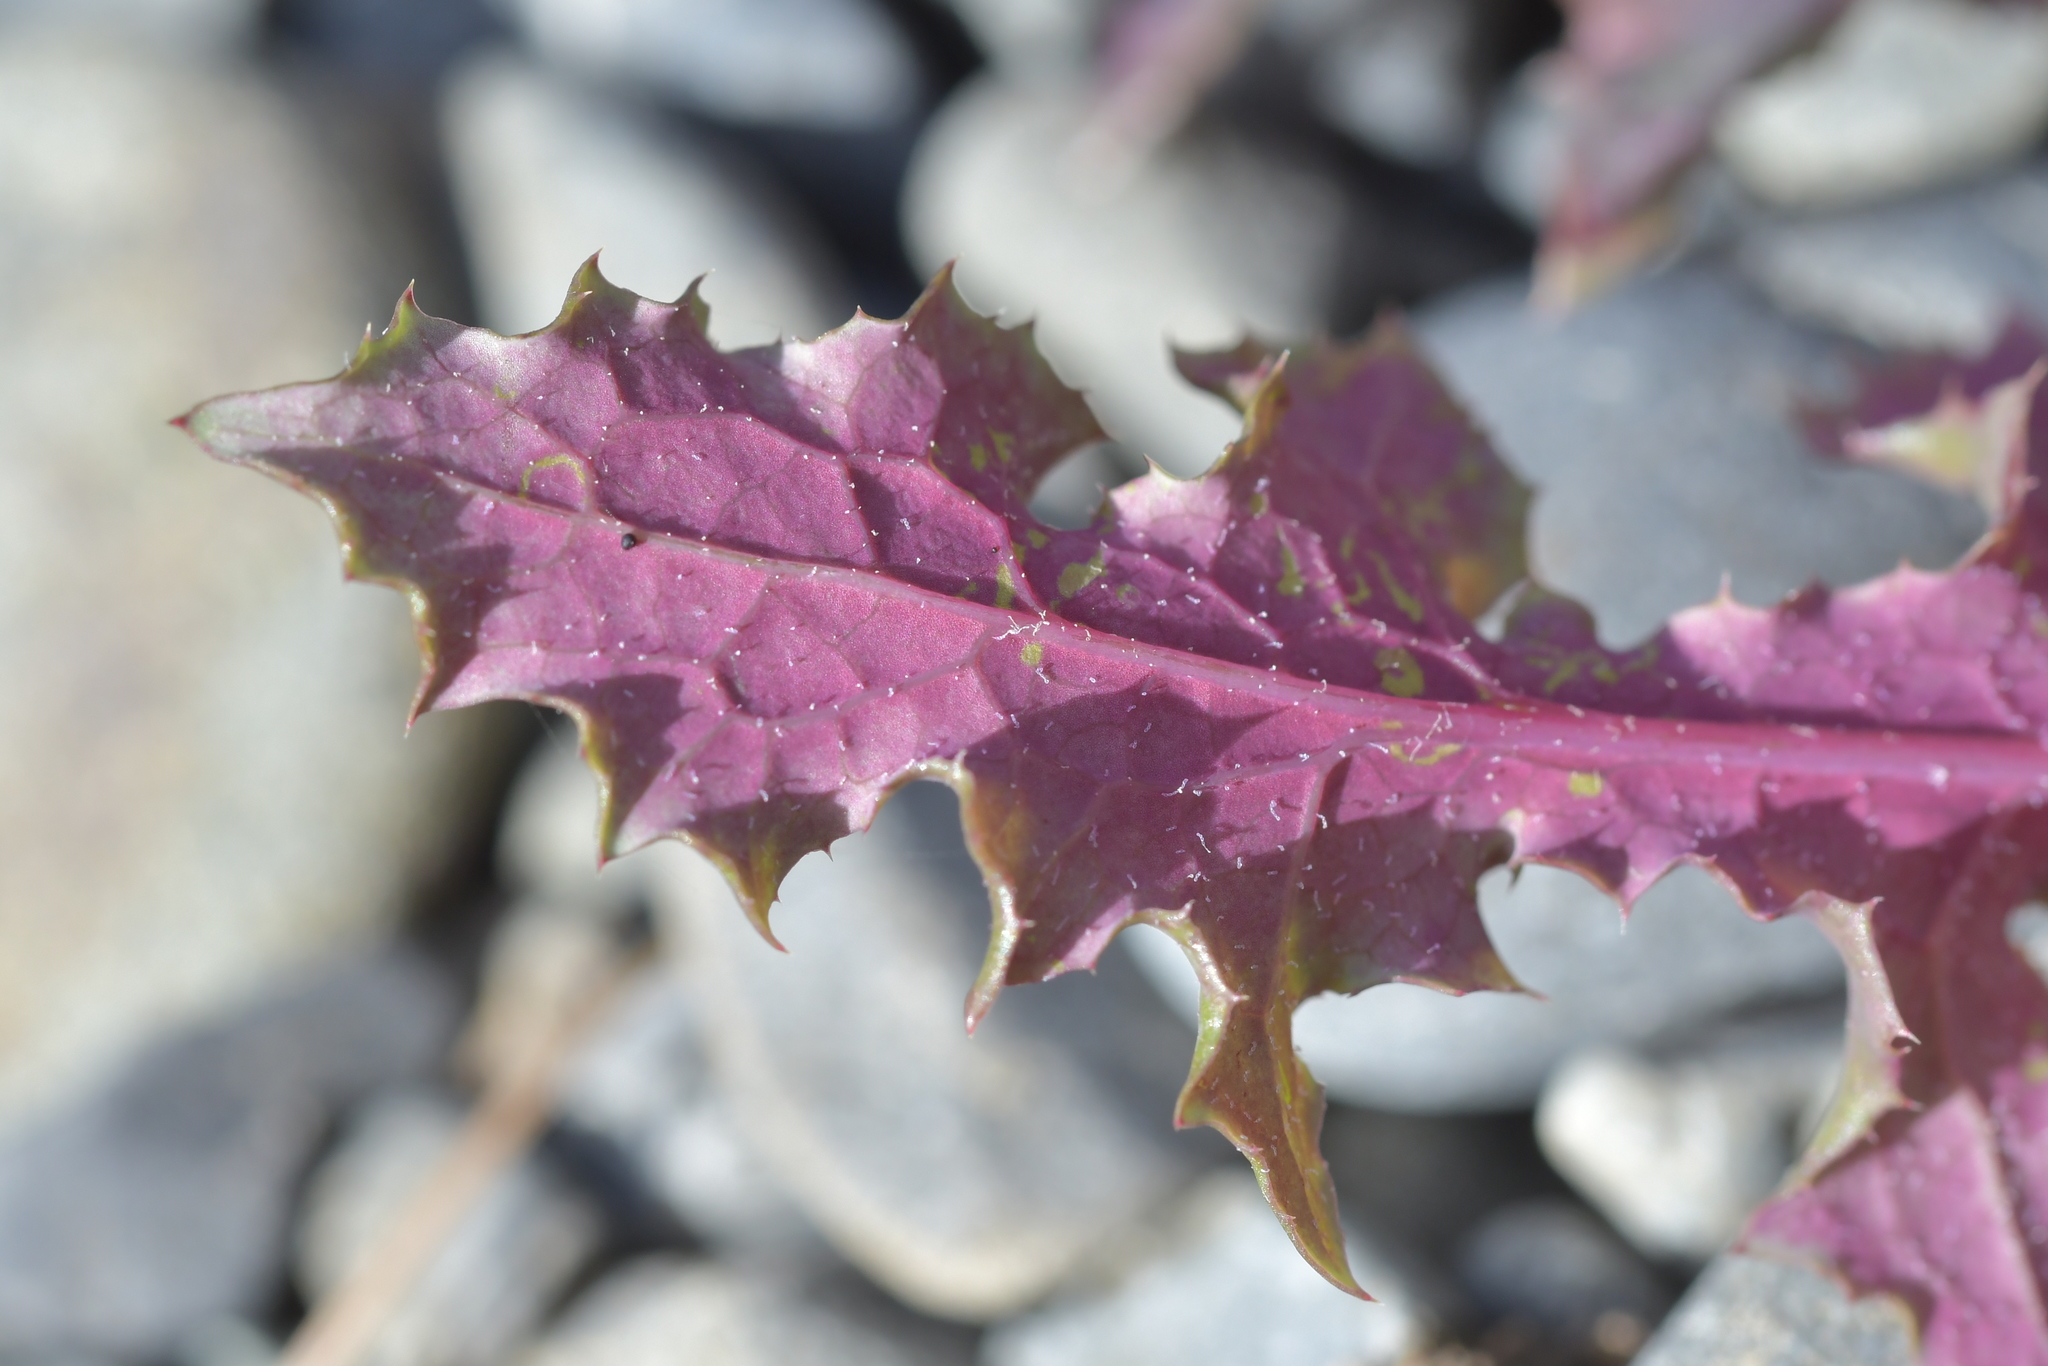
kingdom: Plantae
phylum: Tracheophyta
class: Magnoliopsida
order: Asterales
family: Asteraceae
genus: Sonchus
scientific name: Sonchus oleraceus
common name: Common sowthistle
